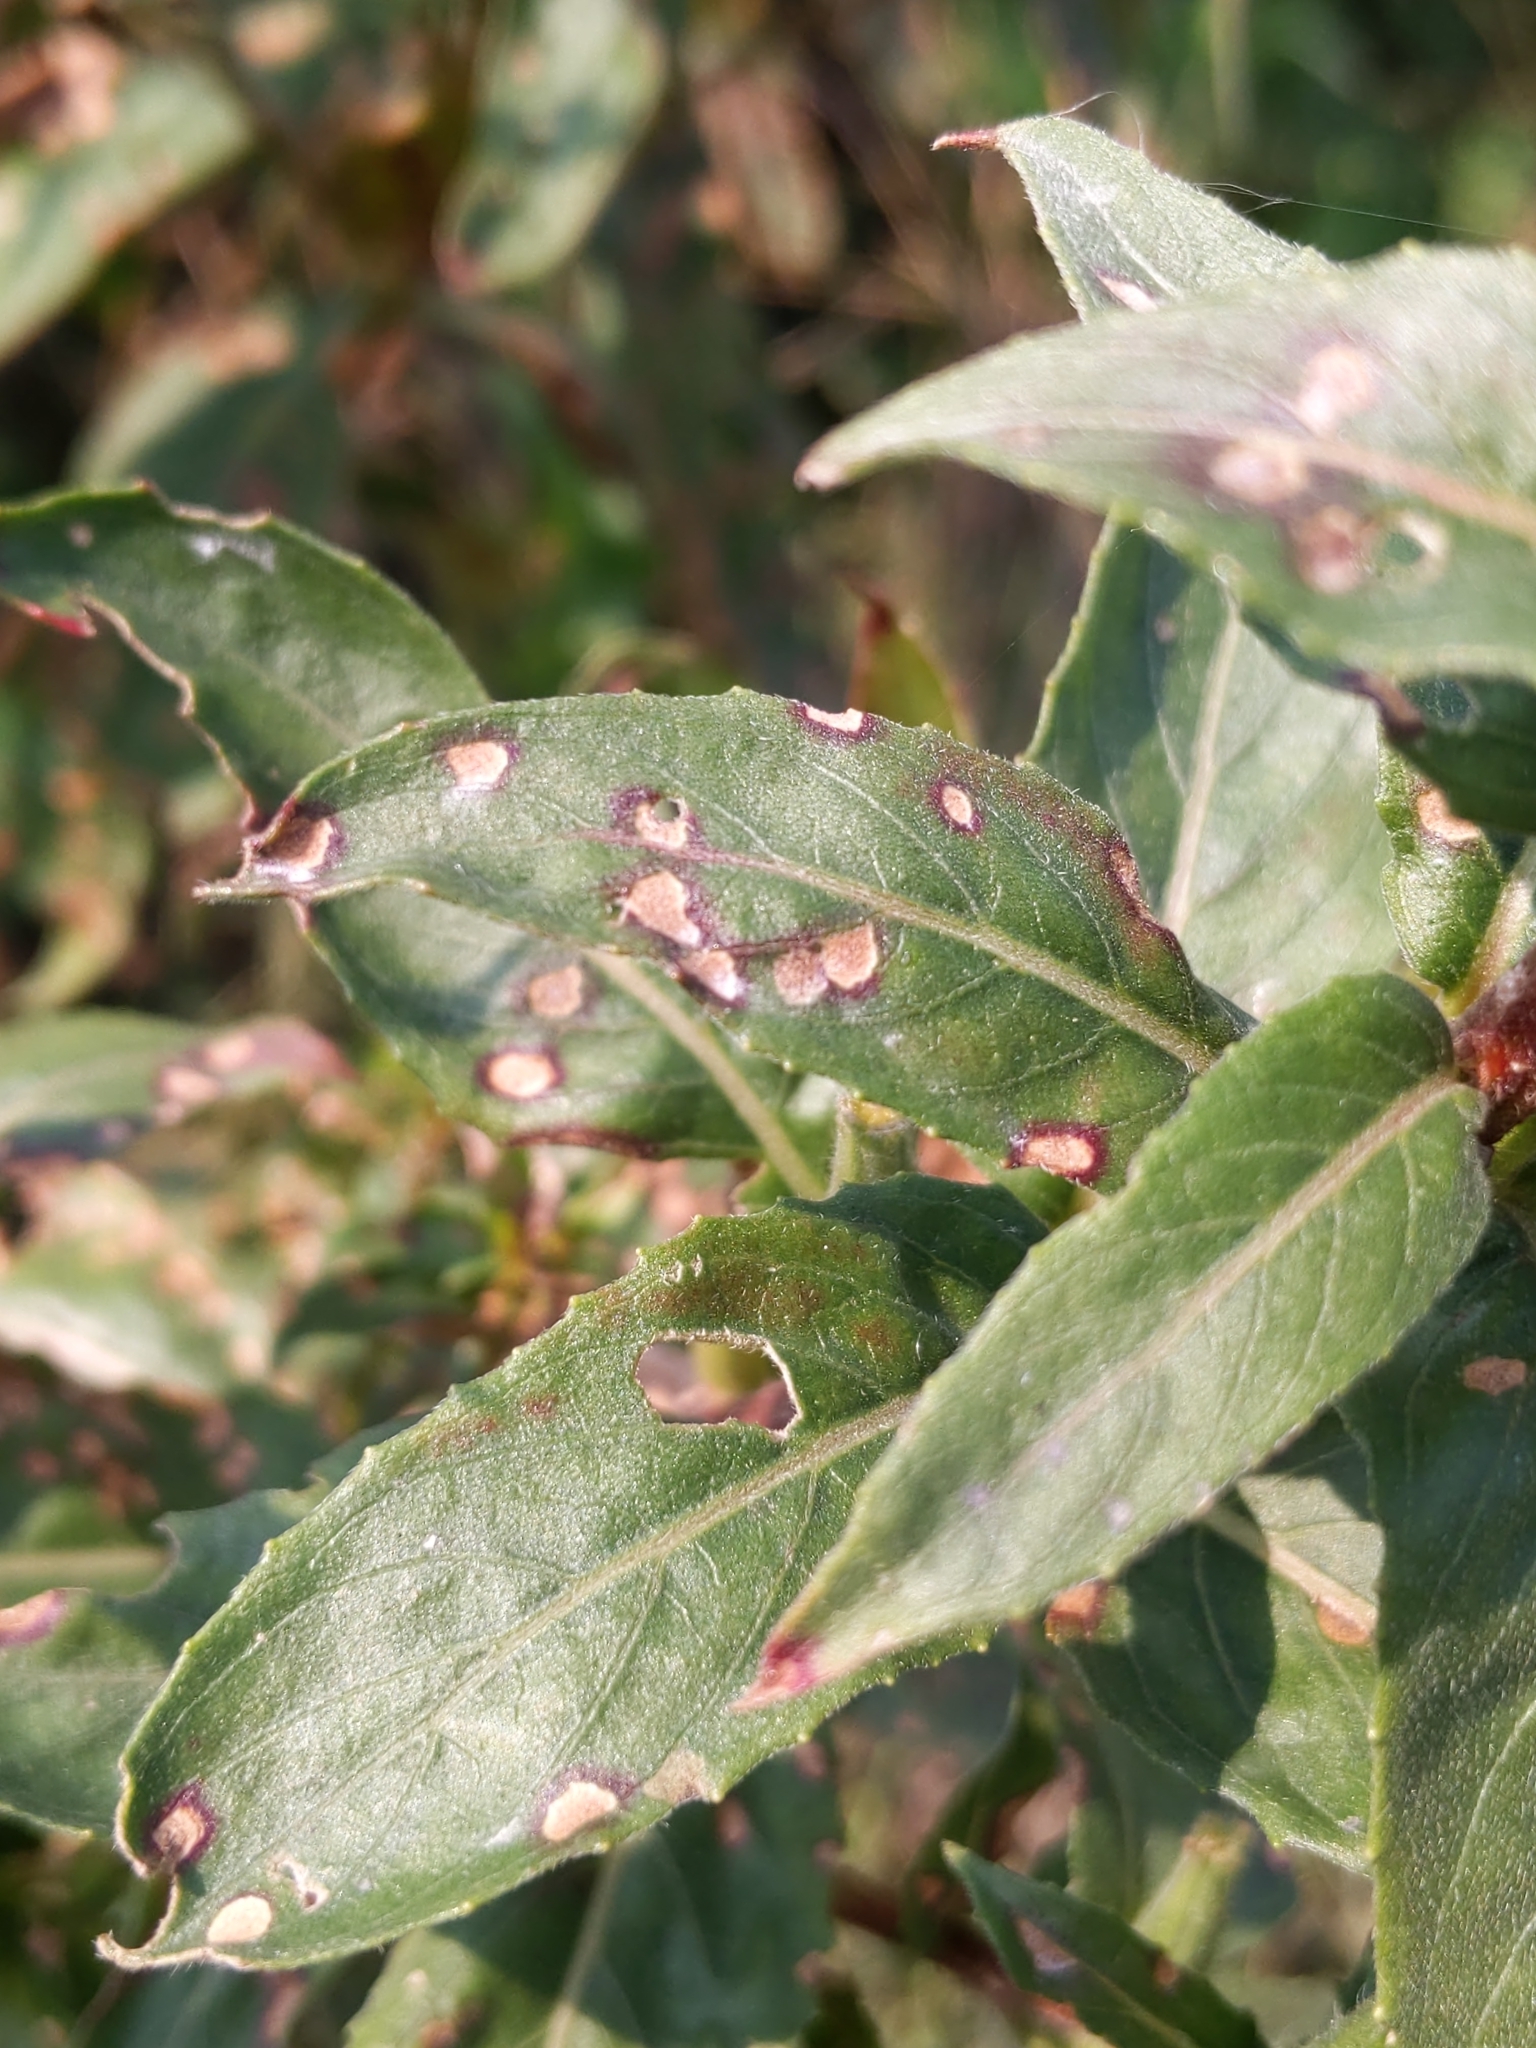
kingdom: Plantae
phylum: Tracheophyta
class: Magnoliopsida
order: Myrtales
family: Onagraceae
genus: Oenothera
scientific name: Oenothera biennis
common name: Common evening-primrose
